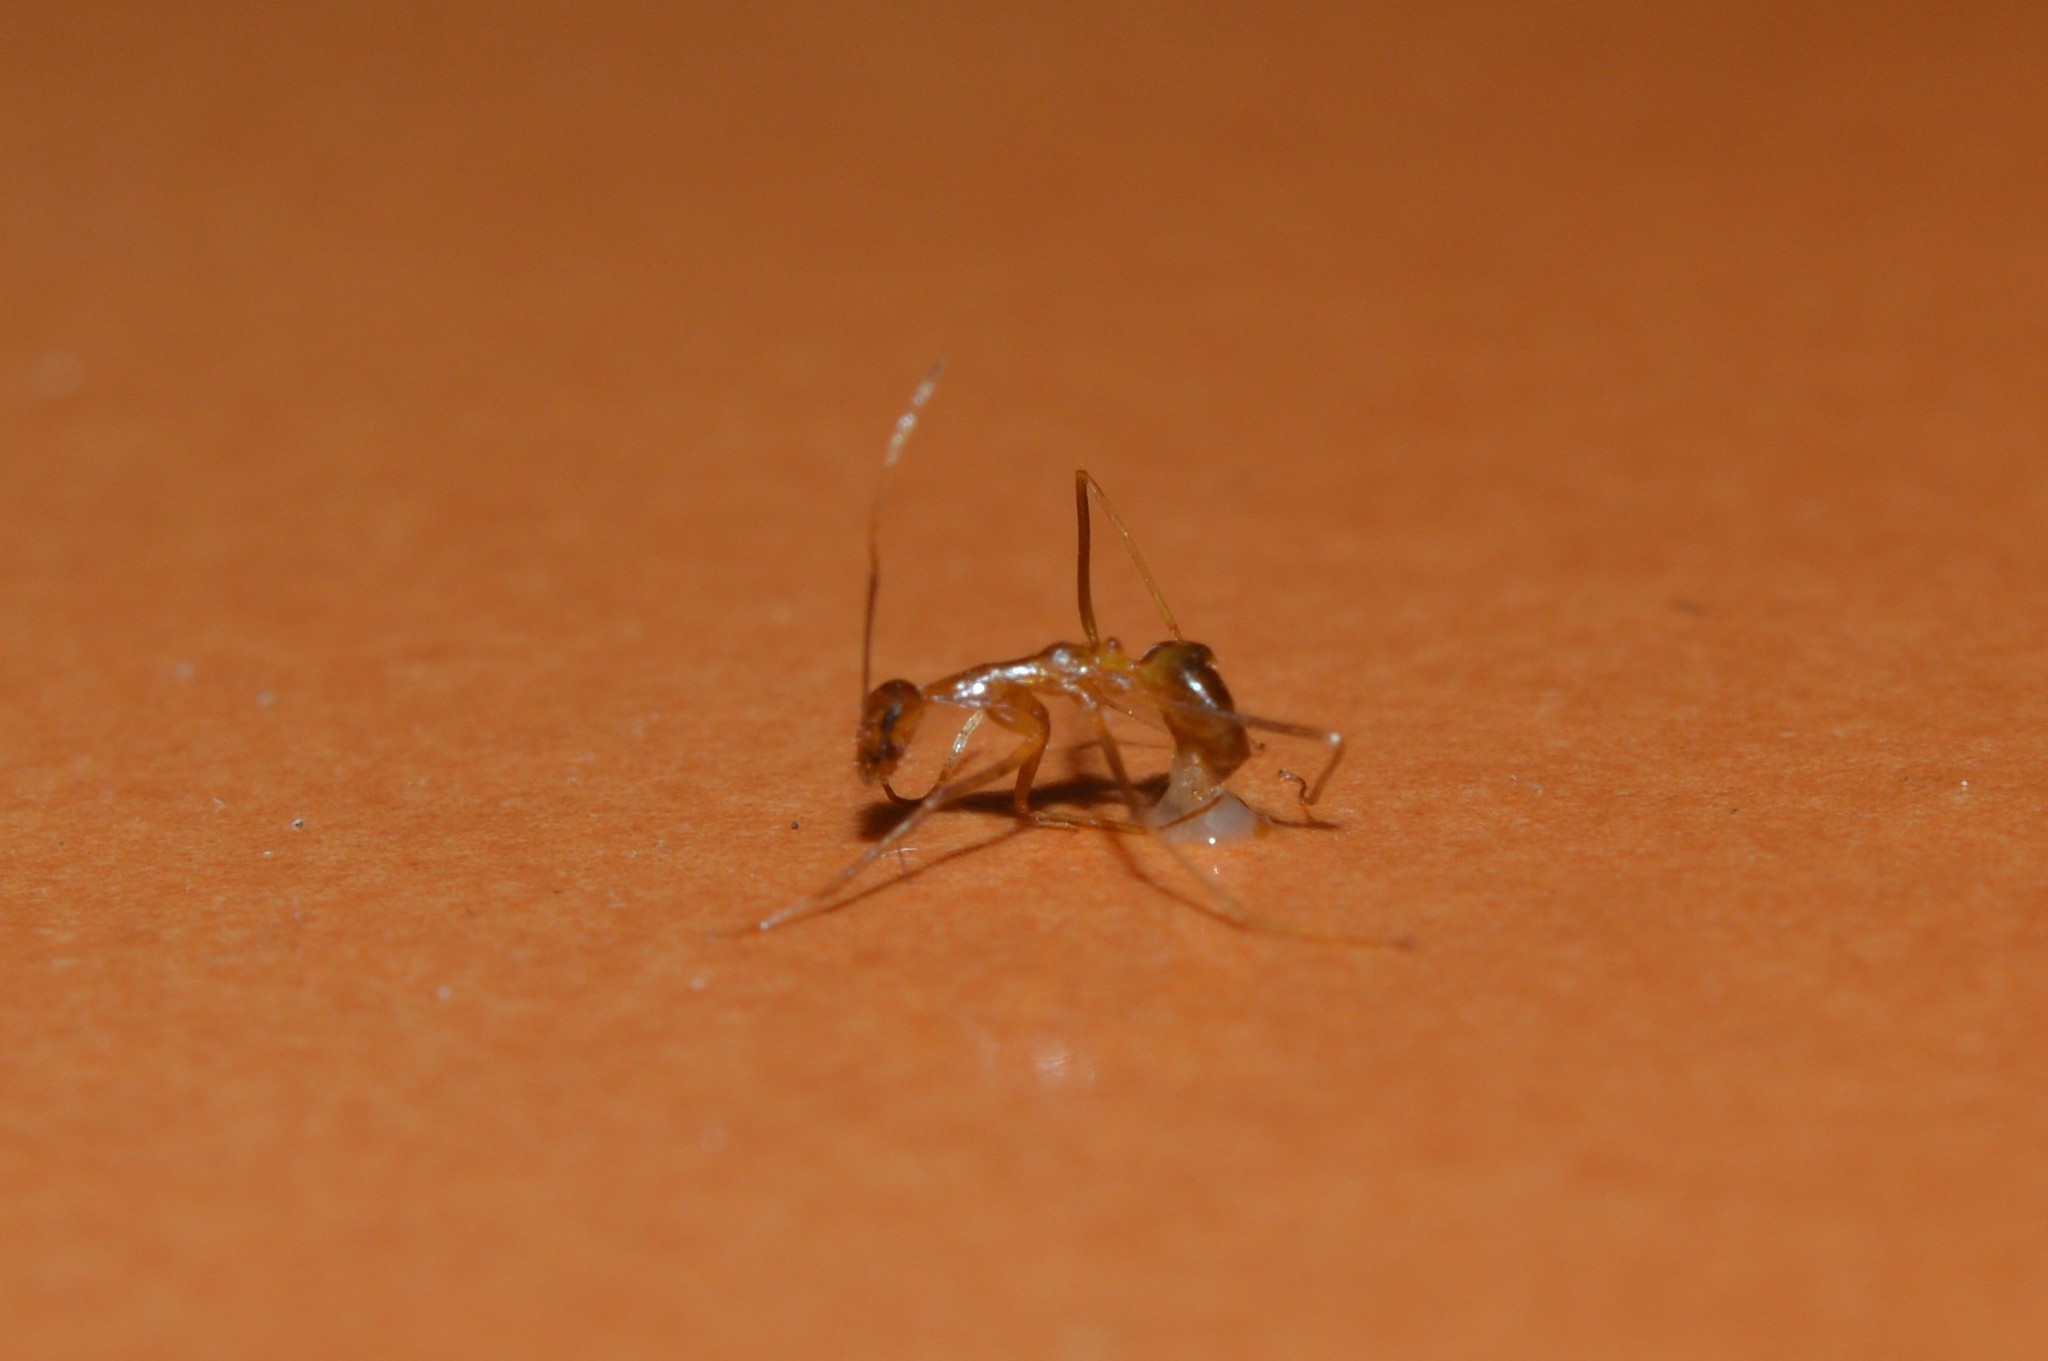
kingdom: Animalia
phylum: Arthropoda
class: Insecta
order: Hymenoptera
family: Formicidae
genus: Anoplolepis
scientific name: Anoplolepis gracilipes
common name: Ant
